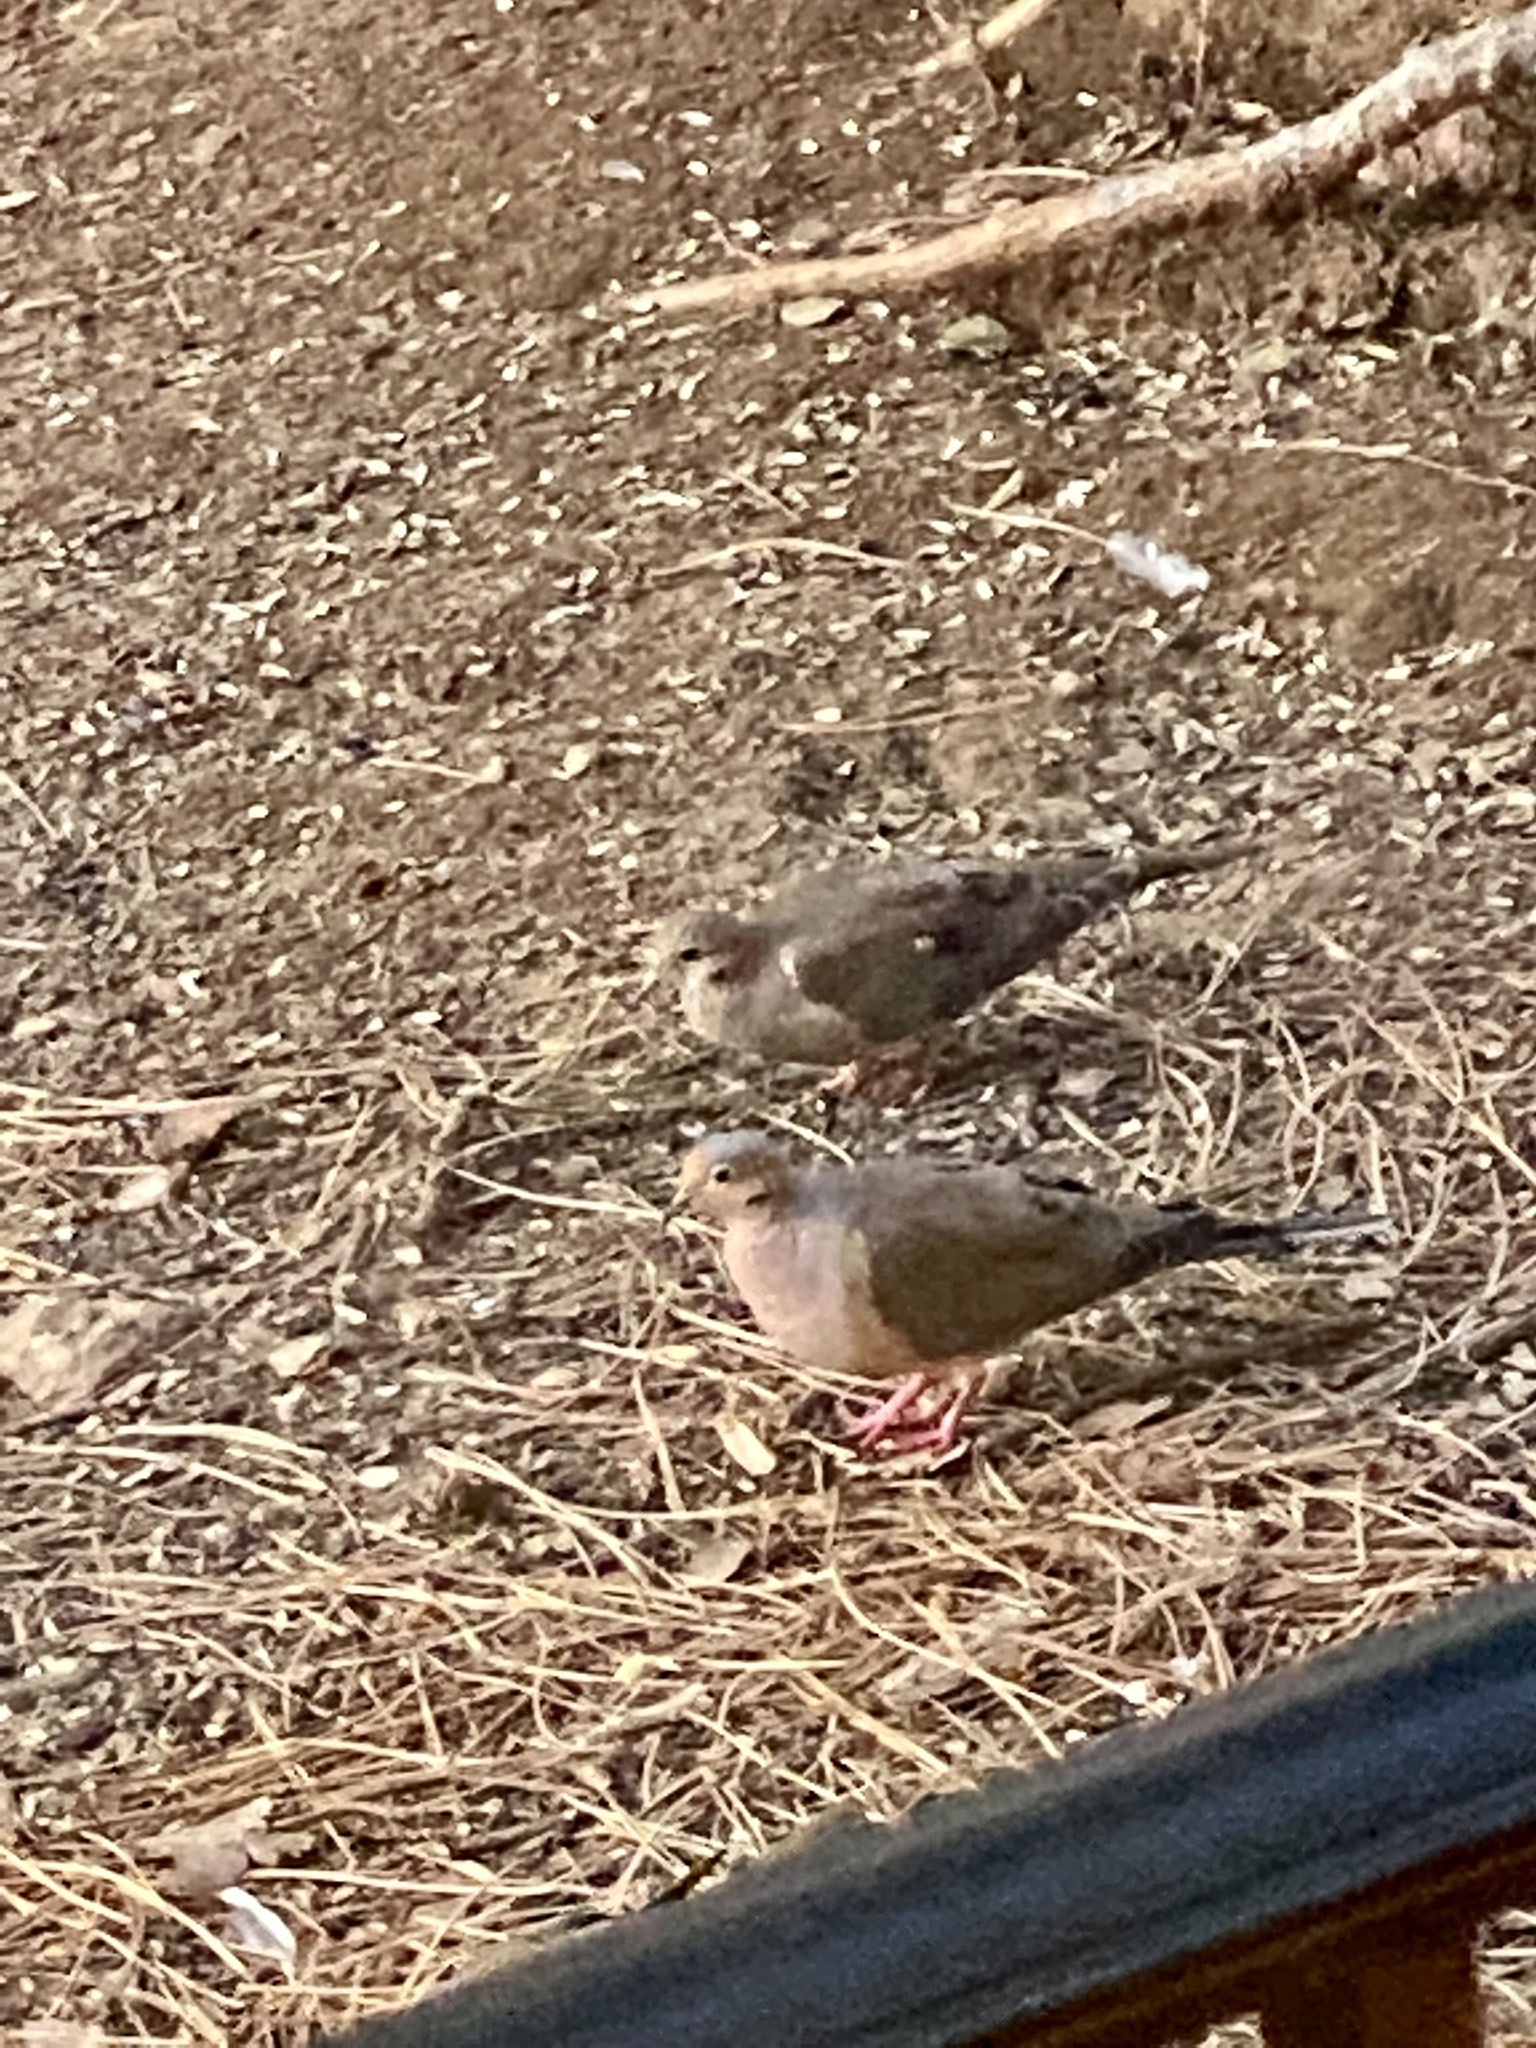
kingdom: Animalia
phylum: Chordata
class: Aves
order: Columbiformes
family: Columbidae
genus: Zenaida
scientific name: Zenaida macroura
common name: Mourning dove
